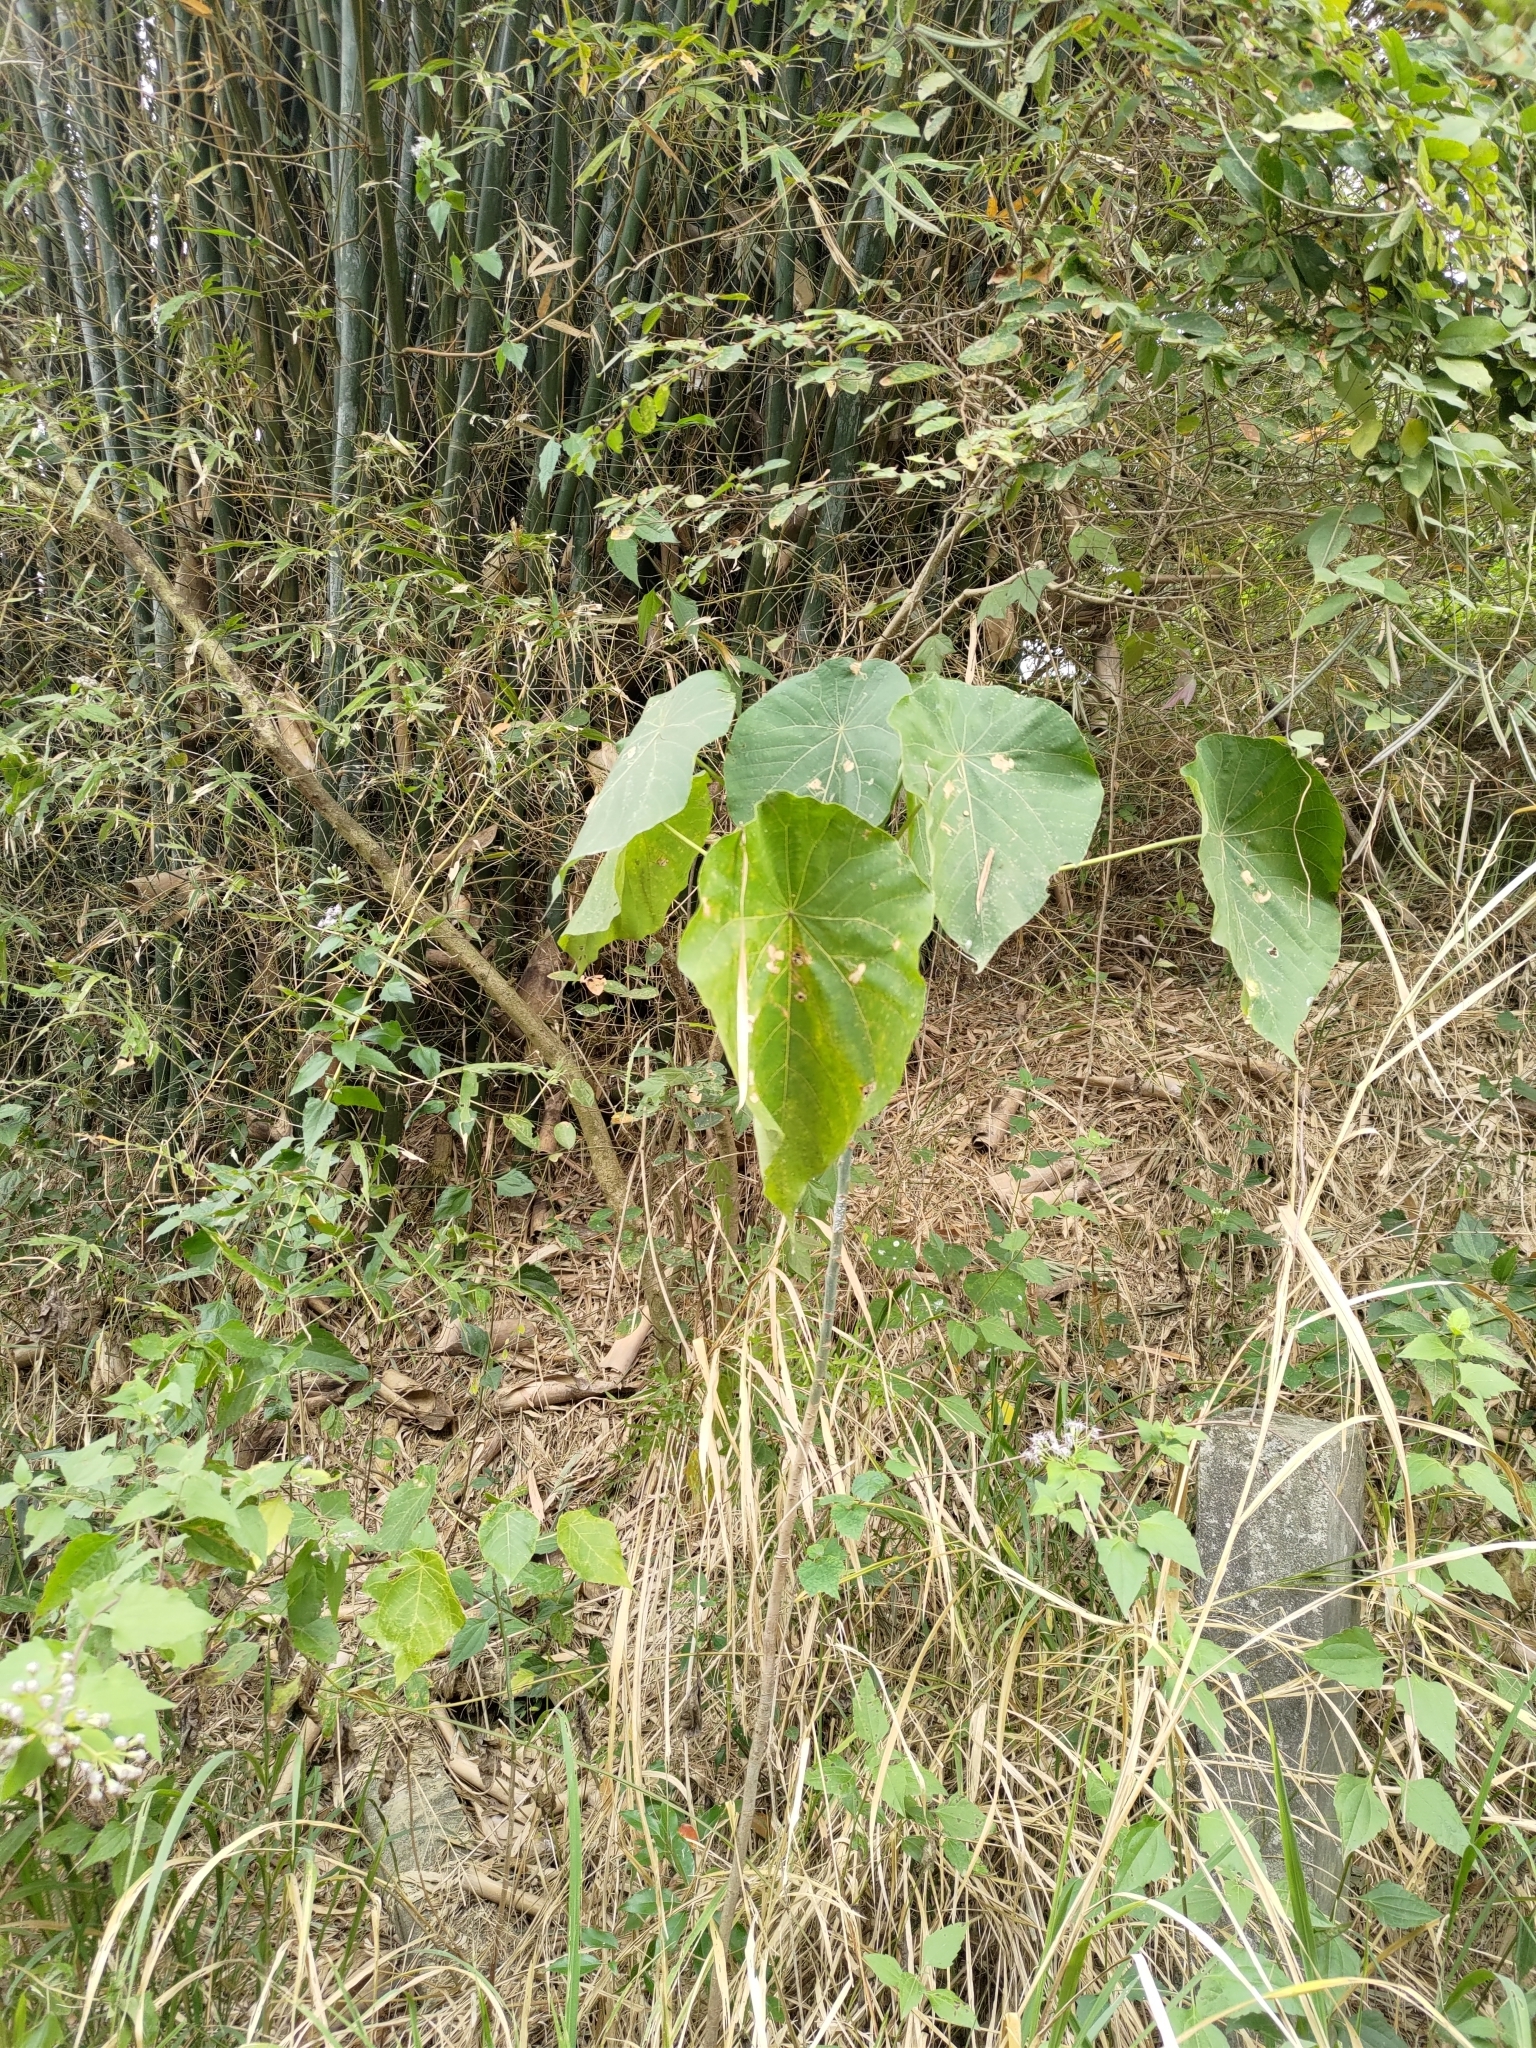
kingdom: Plantae
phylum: Tracheophyta
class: Magnoliopsida
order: Malpighiales
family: Euphorbiaceae
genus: Macaranga
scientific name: Macaranga tanarius
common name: Parasol leaf tree
